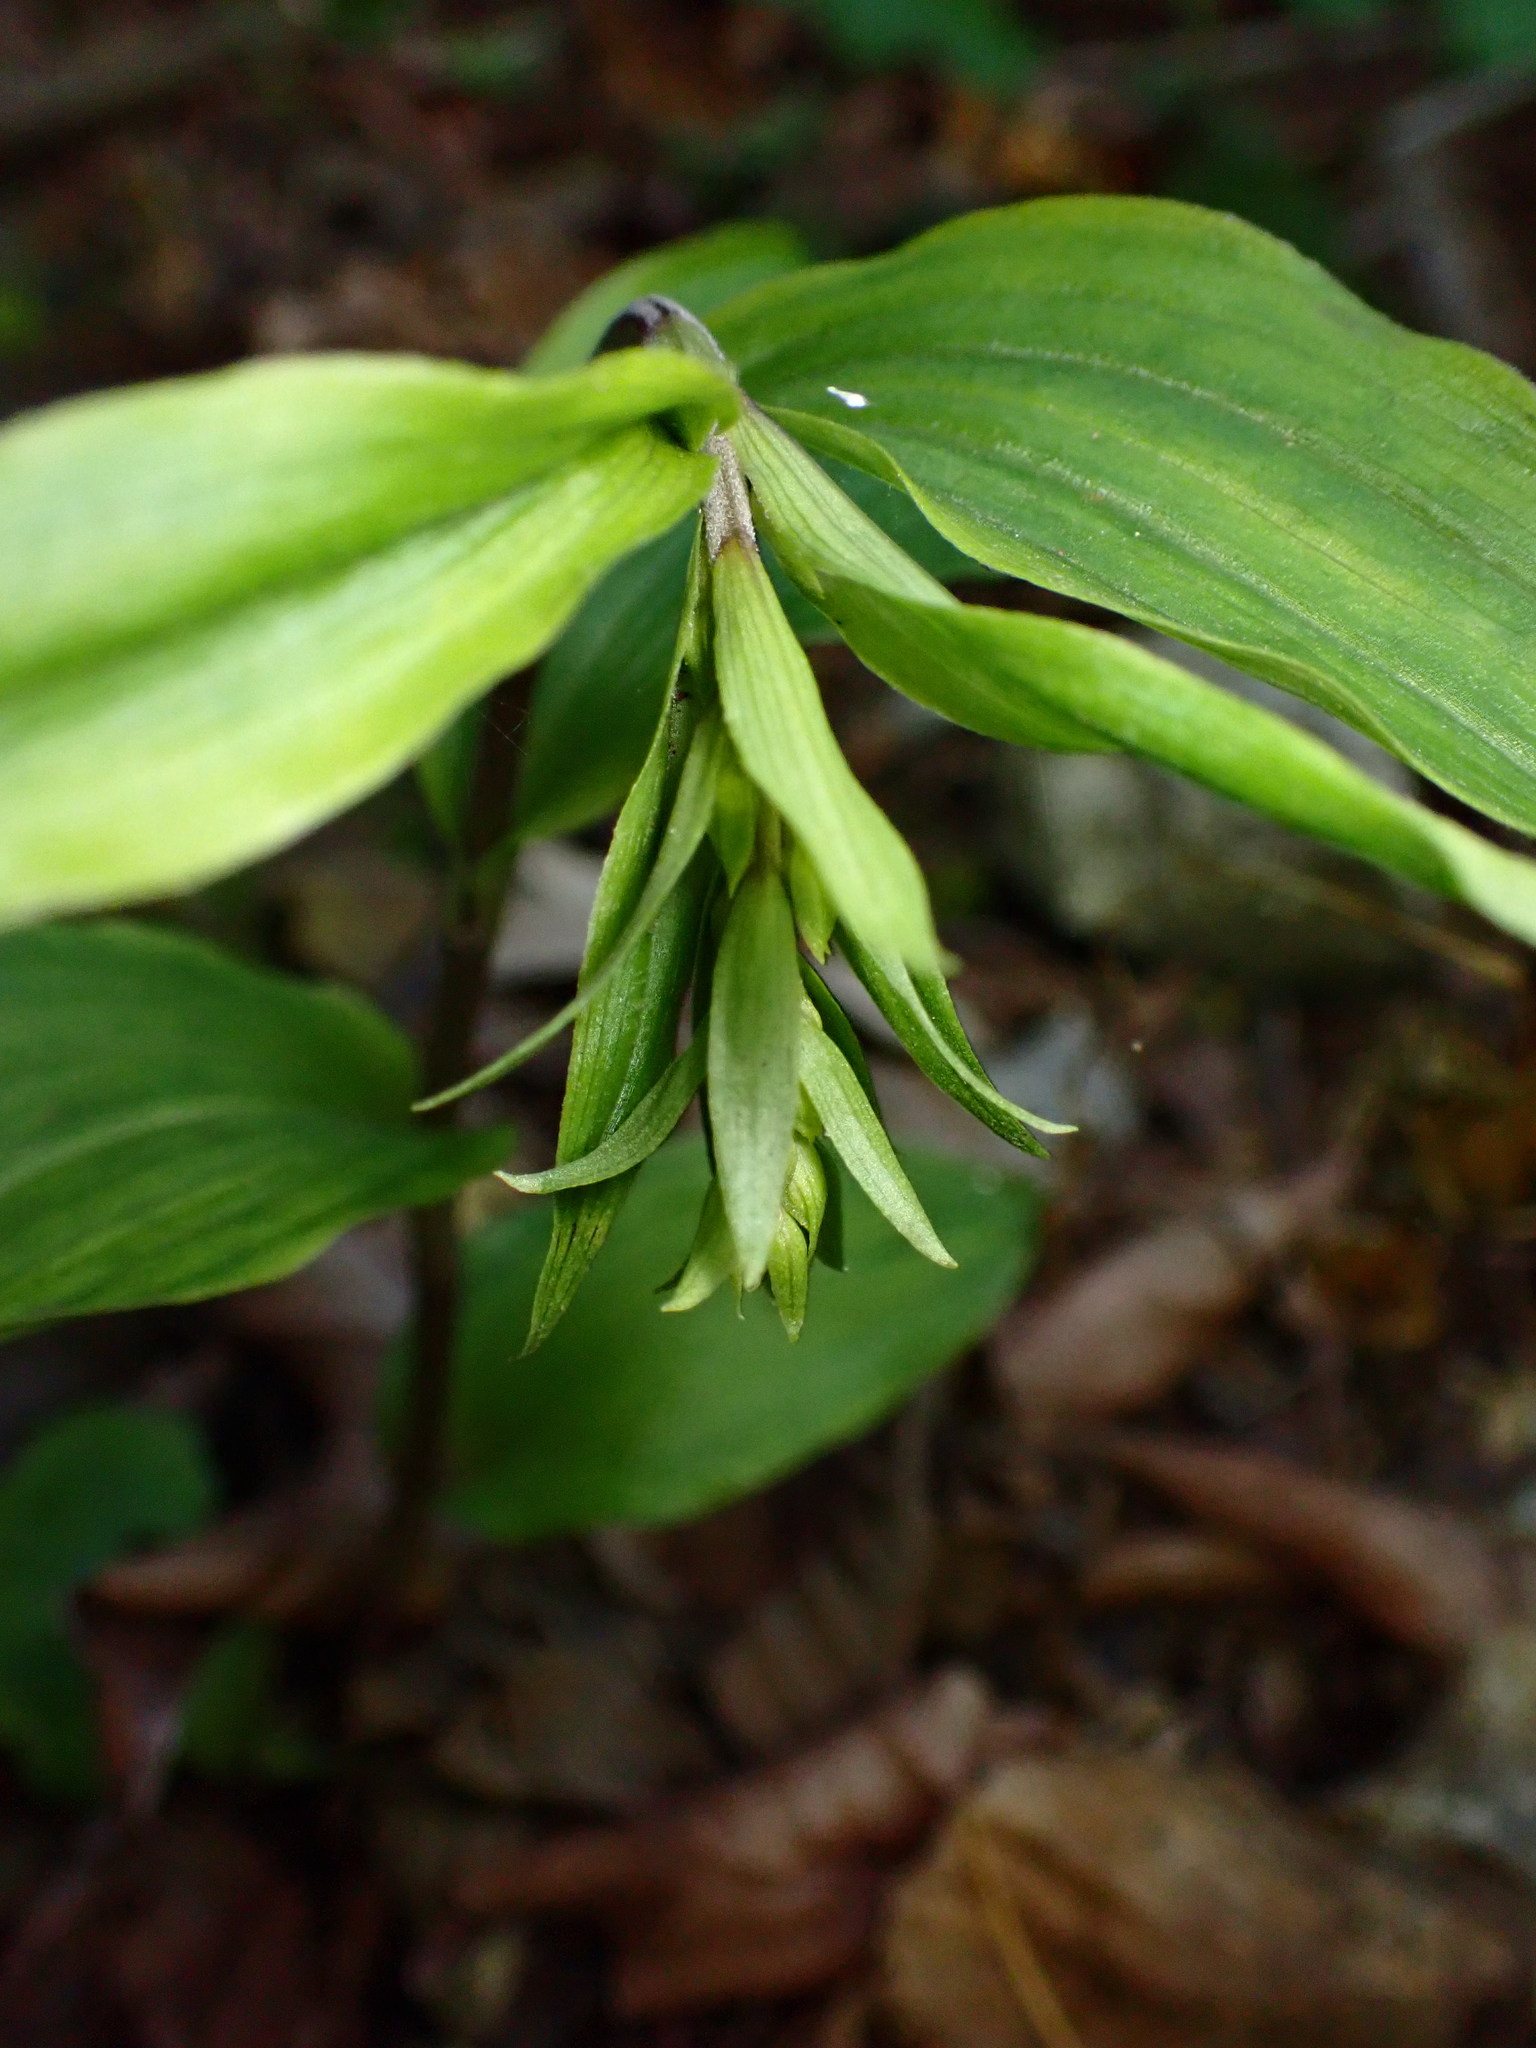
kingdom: Plantae
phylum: Tracheophyta
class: Liliopsida
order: Asparagales
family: Orchidaceae
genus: Epipactis
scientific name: Epipactis helleborine
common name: Broad-leaved helleborine
